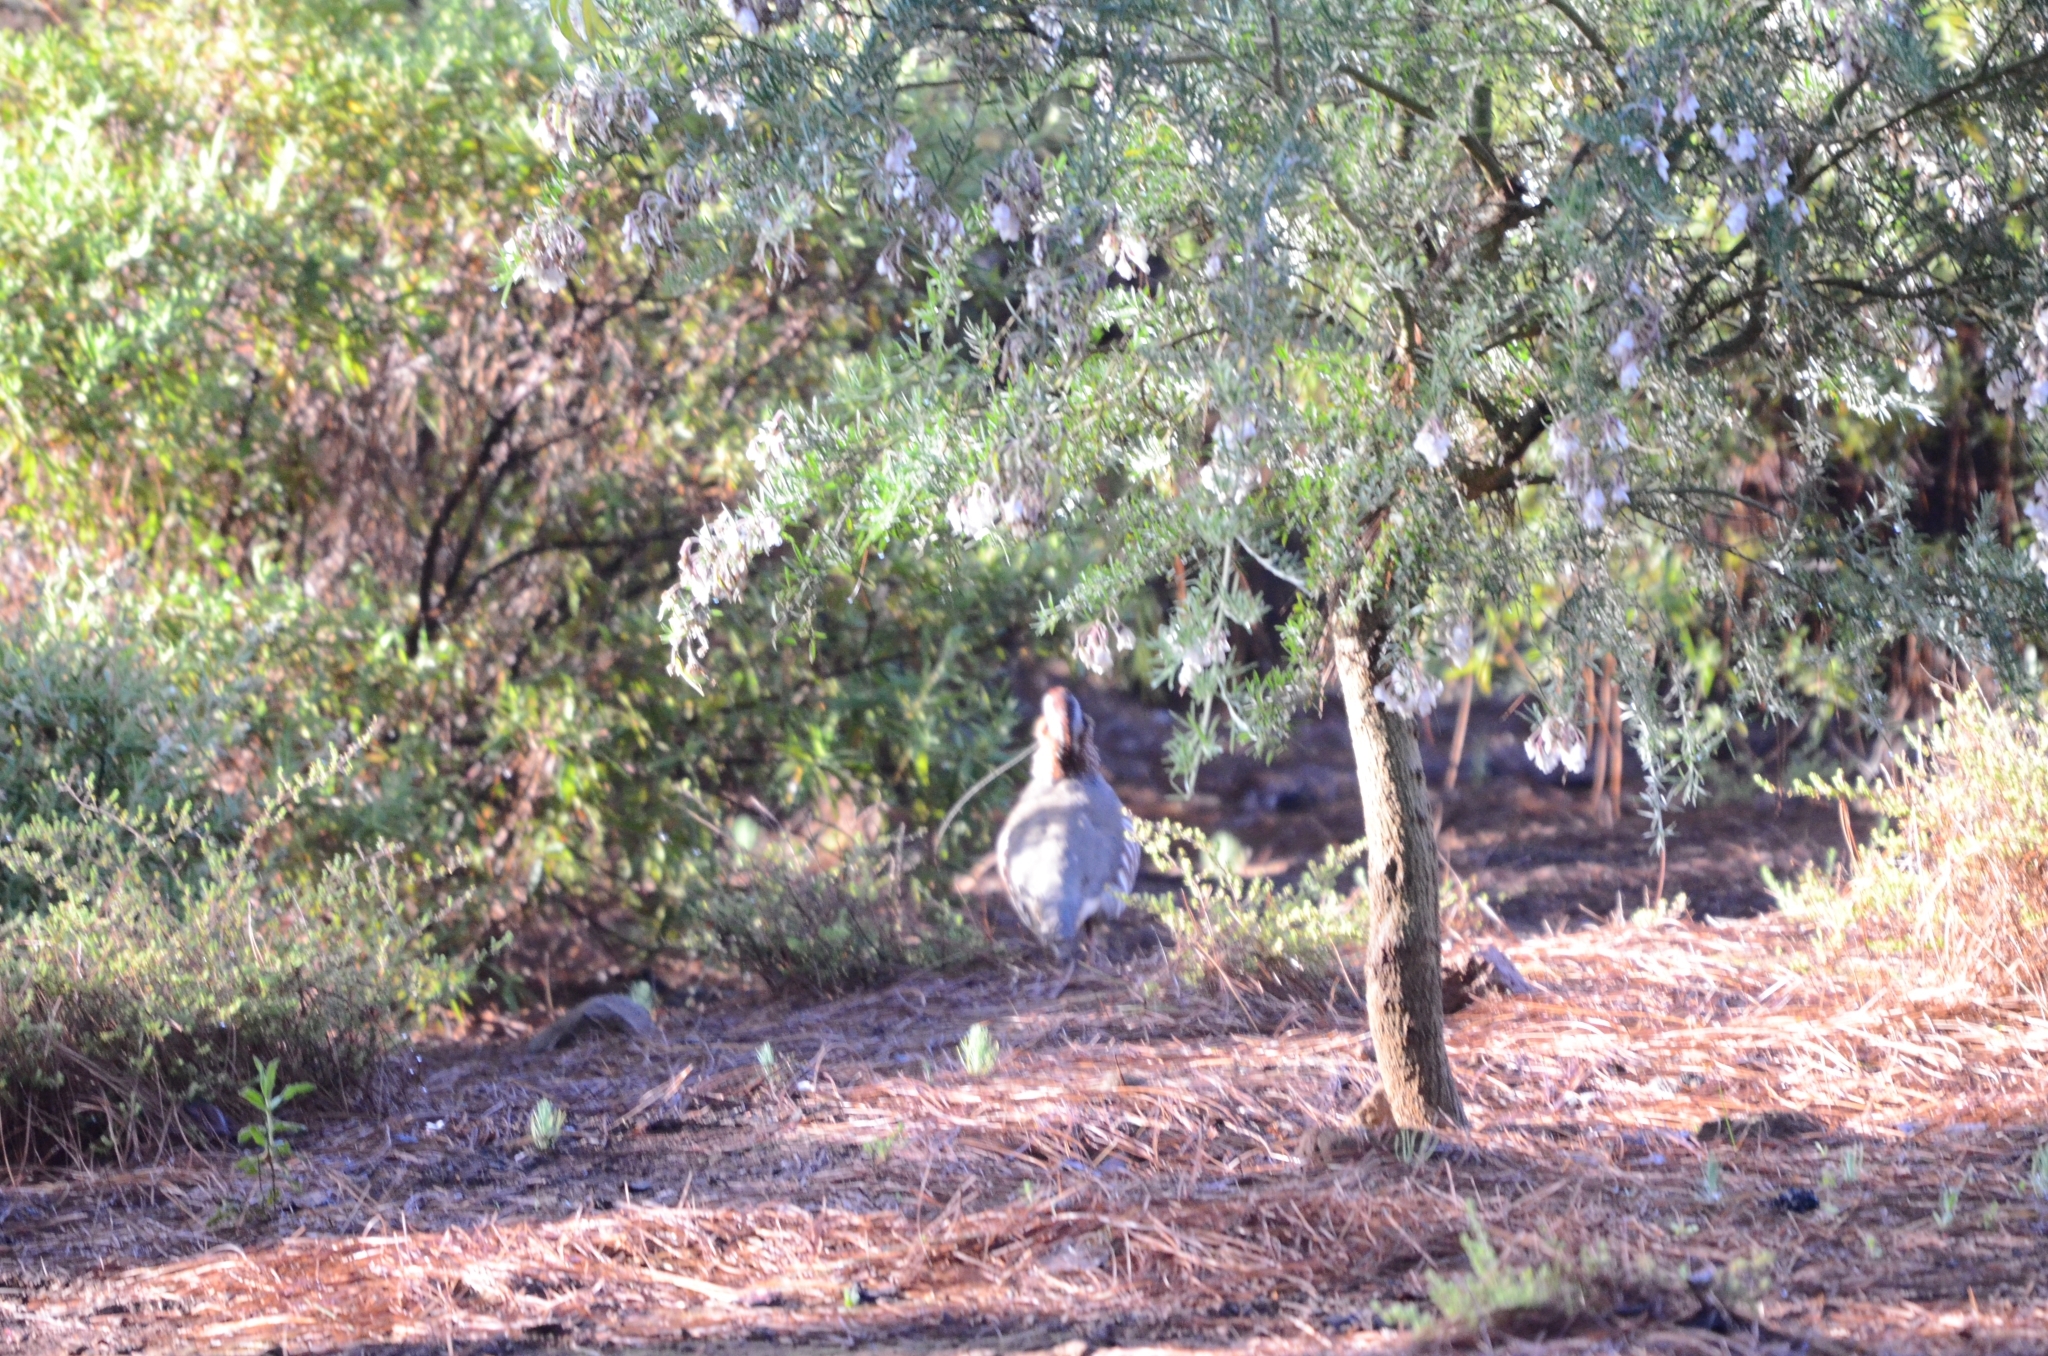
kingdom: Animalia
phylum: Chordata
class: Aves
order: Galliformes
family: Phasianidae
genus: Alectoris
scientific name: Alectoris barbara
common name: Barbary partridge
